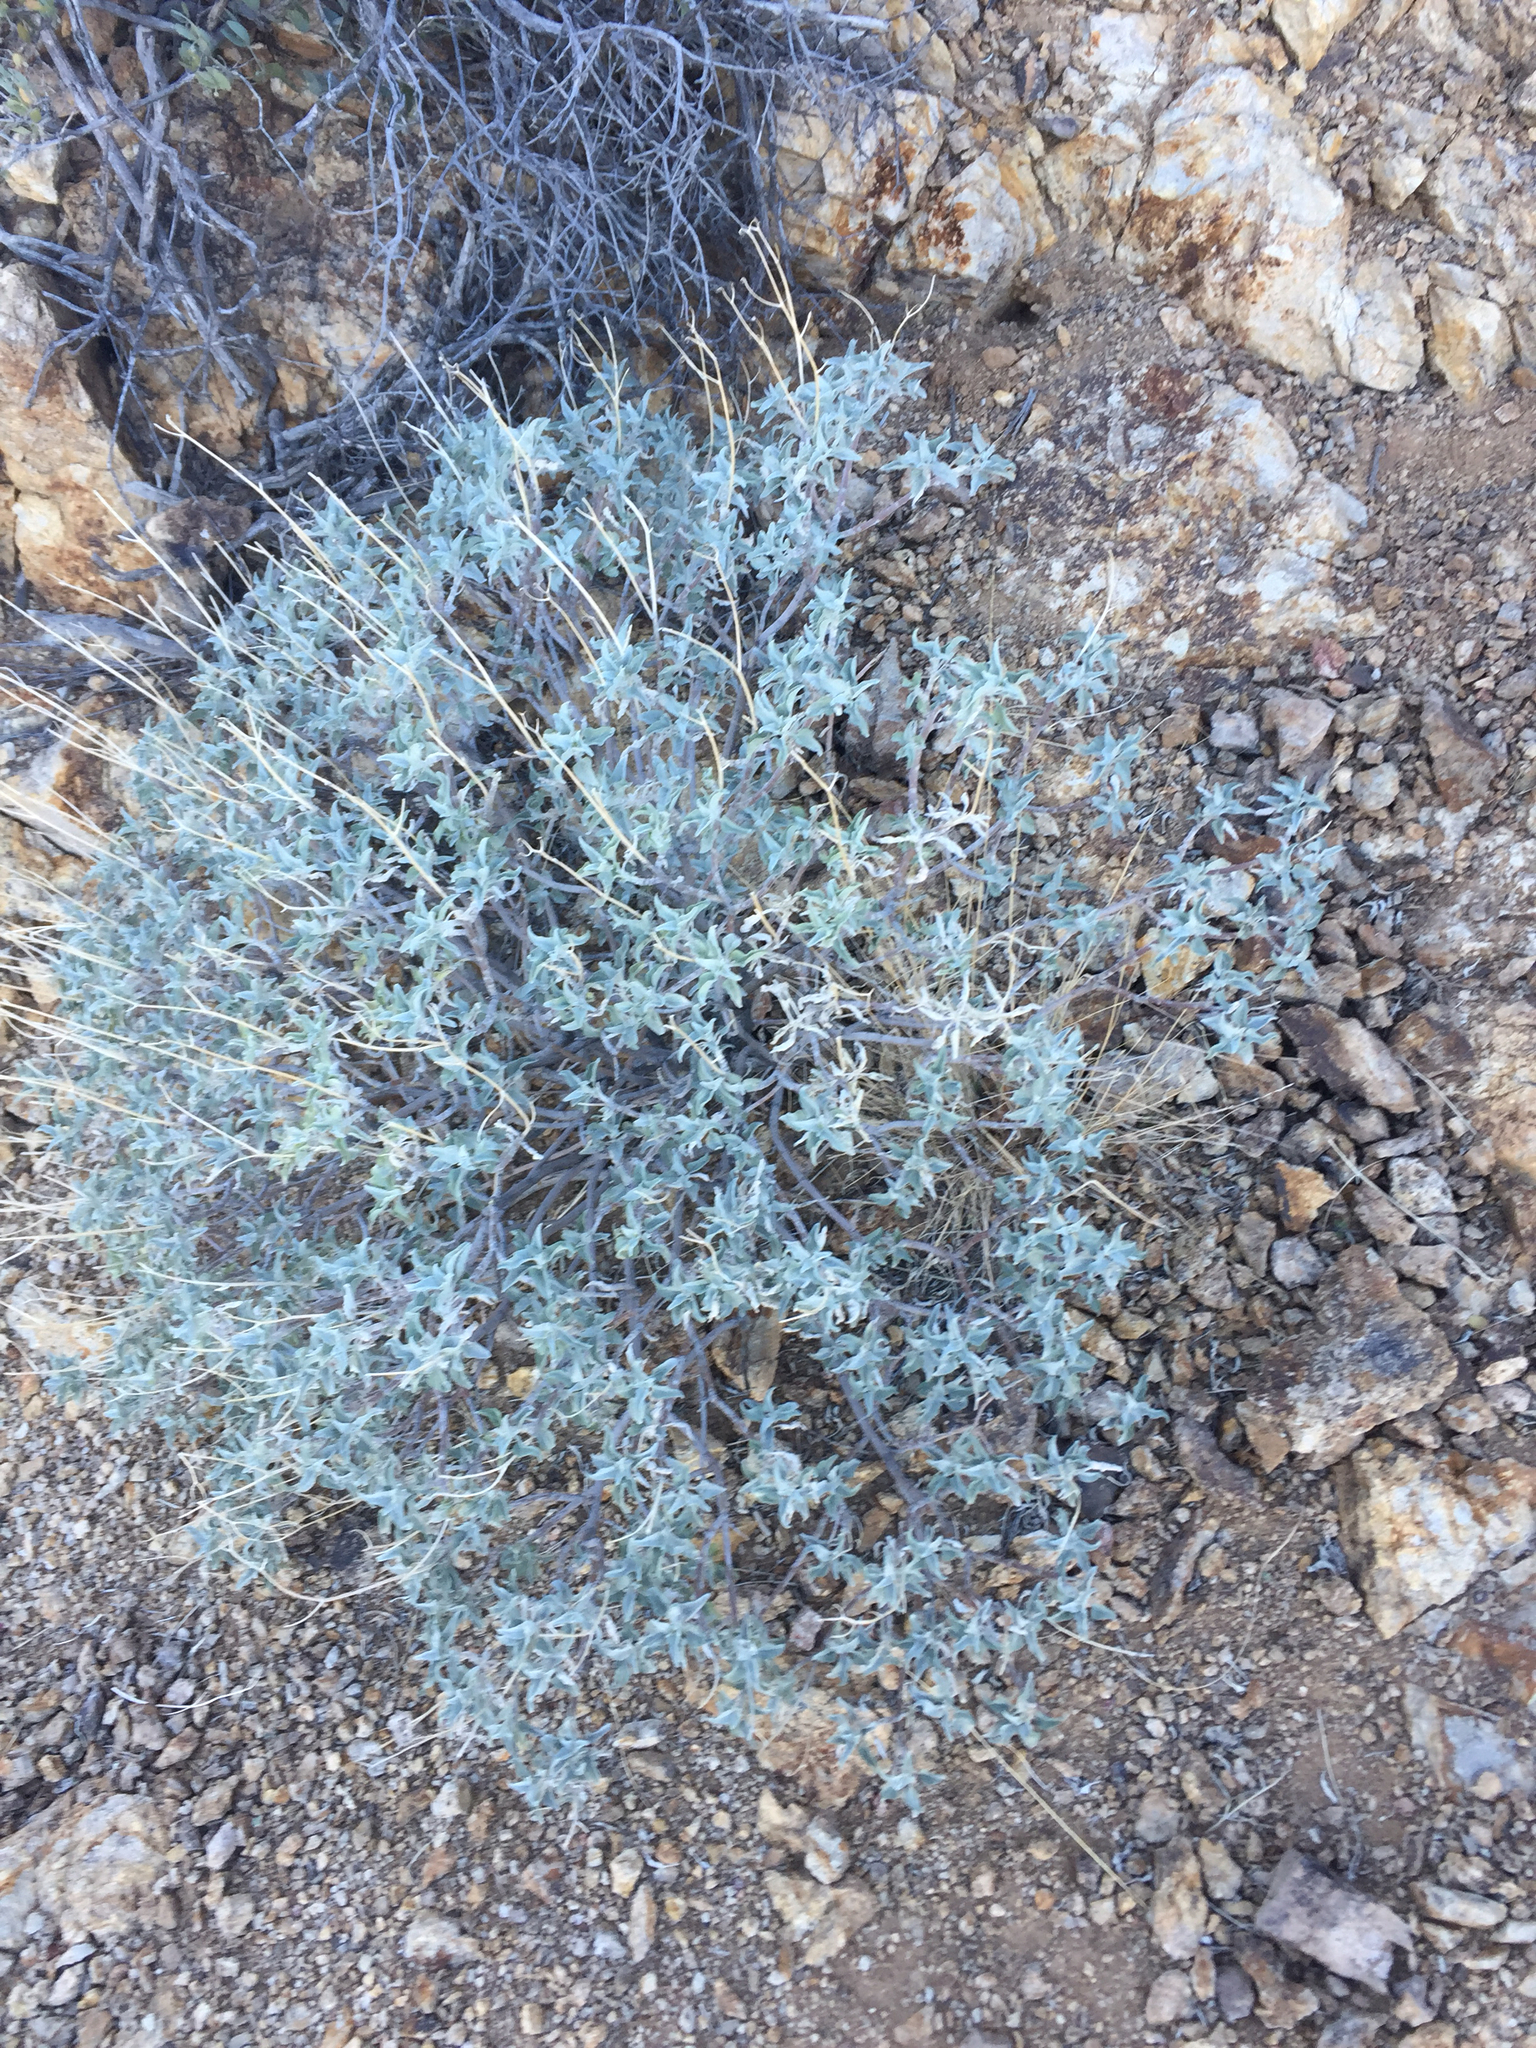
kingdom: Plantae
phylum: Tracheophyta
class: Magnoliopsida
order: Asterales
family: Asteraceae
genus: Encelia
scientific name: Encelia farinosa
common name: Brittlebush
